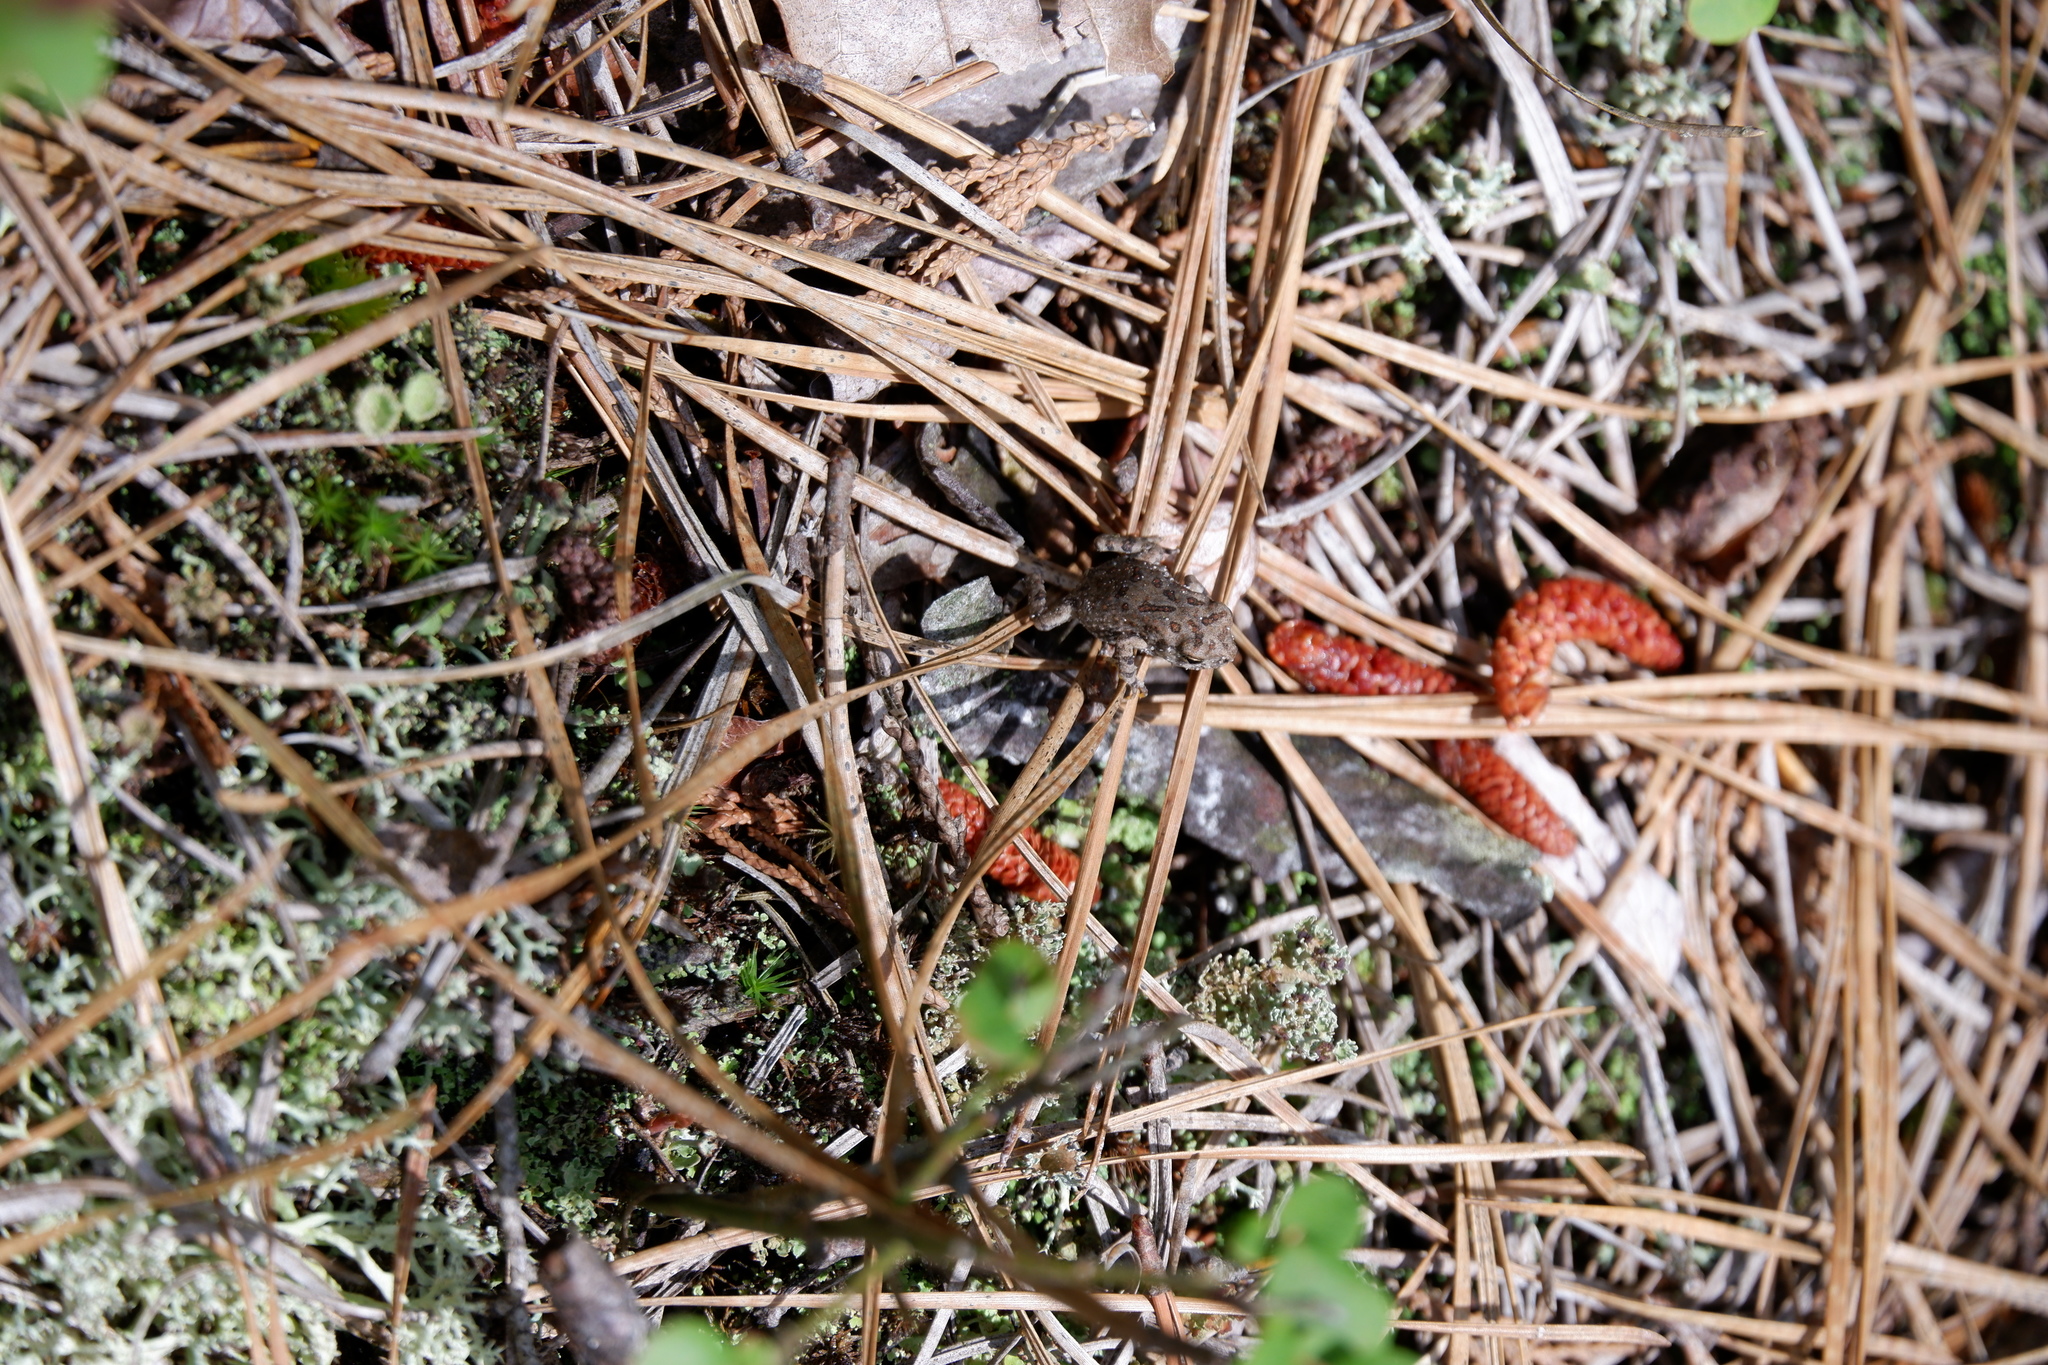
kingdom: Animalia
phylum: Chordata
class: Amphibia
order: Anura
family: Bufonidae
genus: Anaxyrus
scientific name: Anaxyrus fowleri
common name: Fowler's toad
